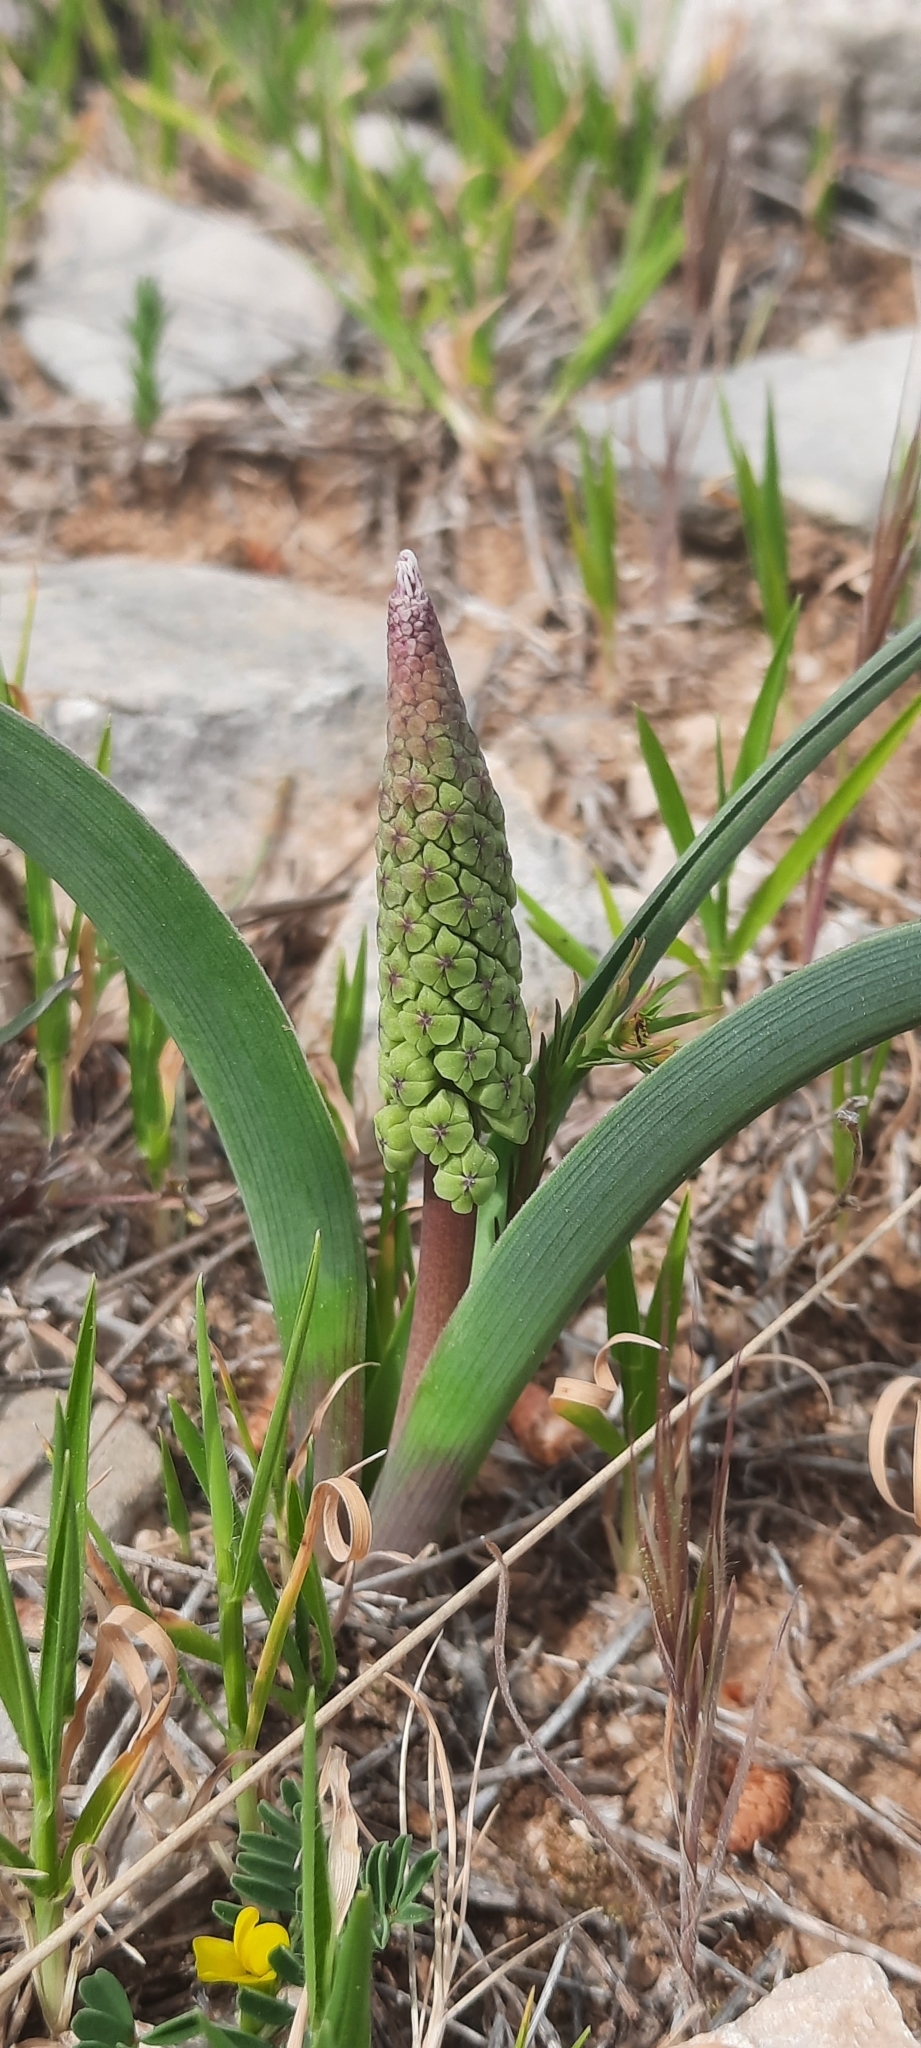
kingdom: Plantae
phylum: Tracheophyta
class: Liliopsida
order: Asparagales
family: Asparagaceae
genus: Muscari
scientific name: Muscari comosum
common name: Tassel hyacinth
